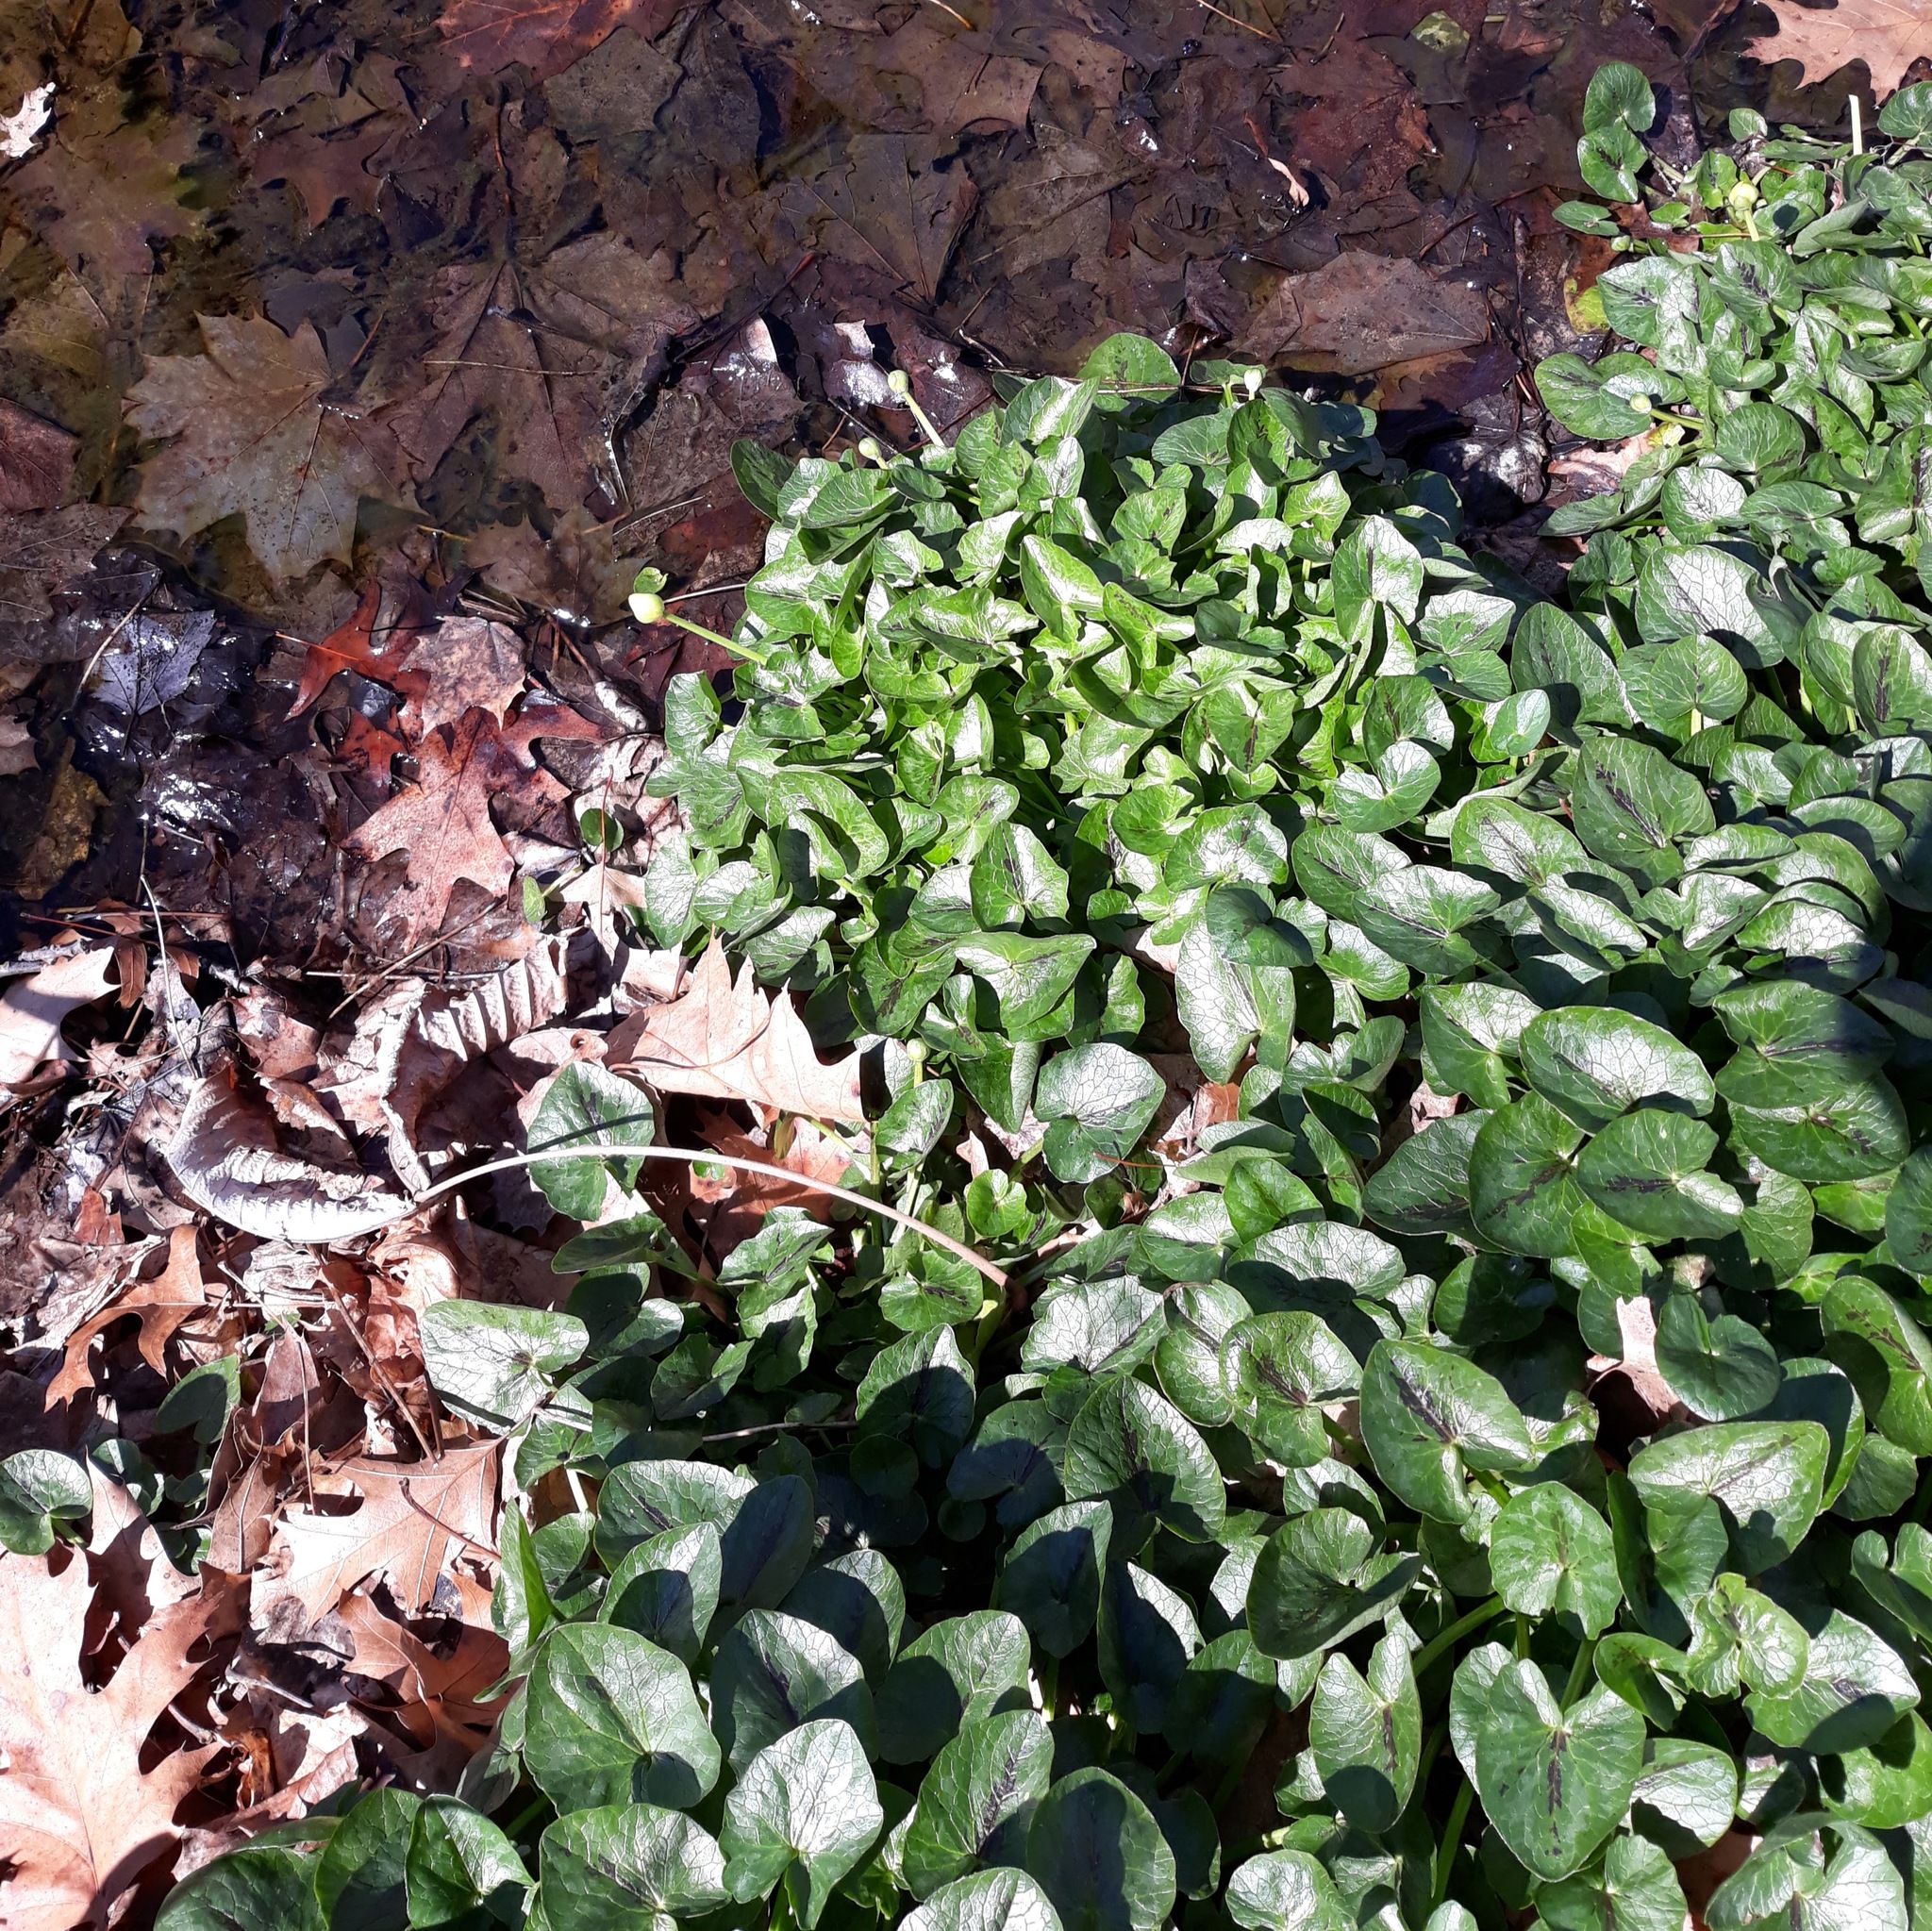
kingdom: Plantae
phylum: Tracheophyta
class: Magnoliopsida
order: Ranunculales
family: Ranunculaceae
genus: Ficaria
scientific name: Ficaria verna
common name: Lesser celandine
